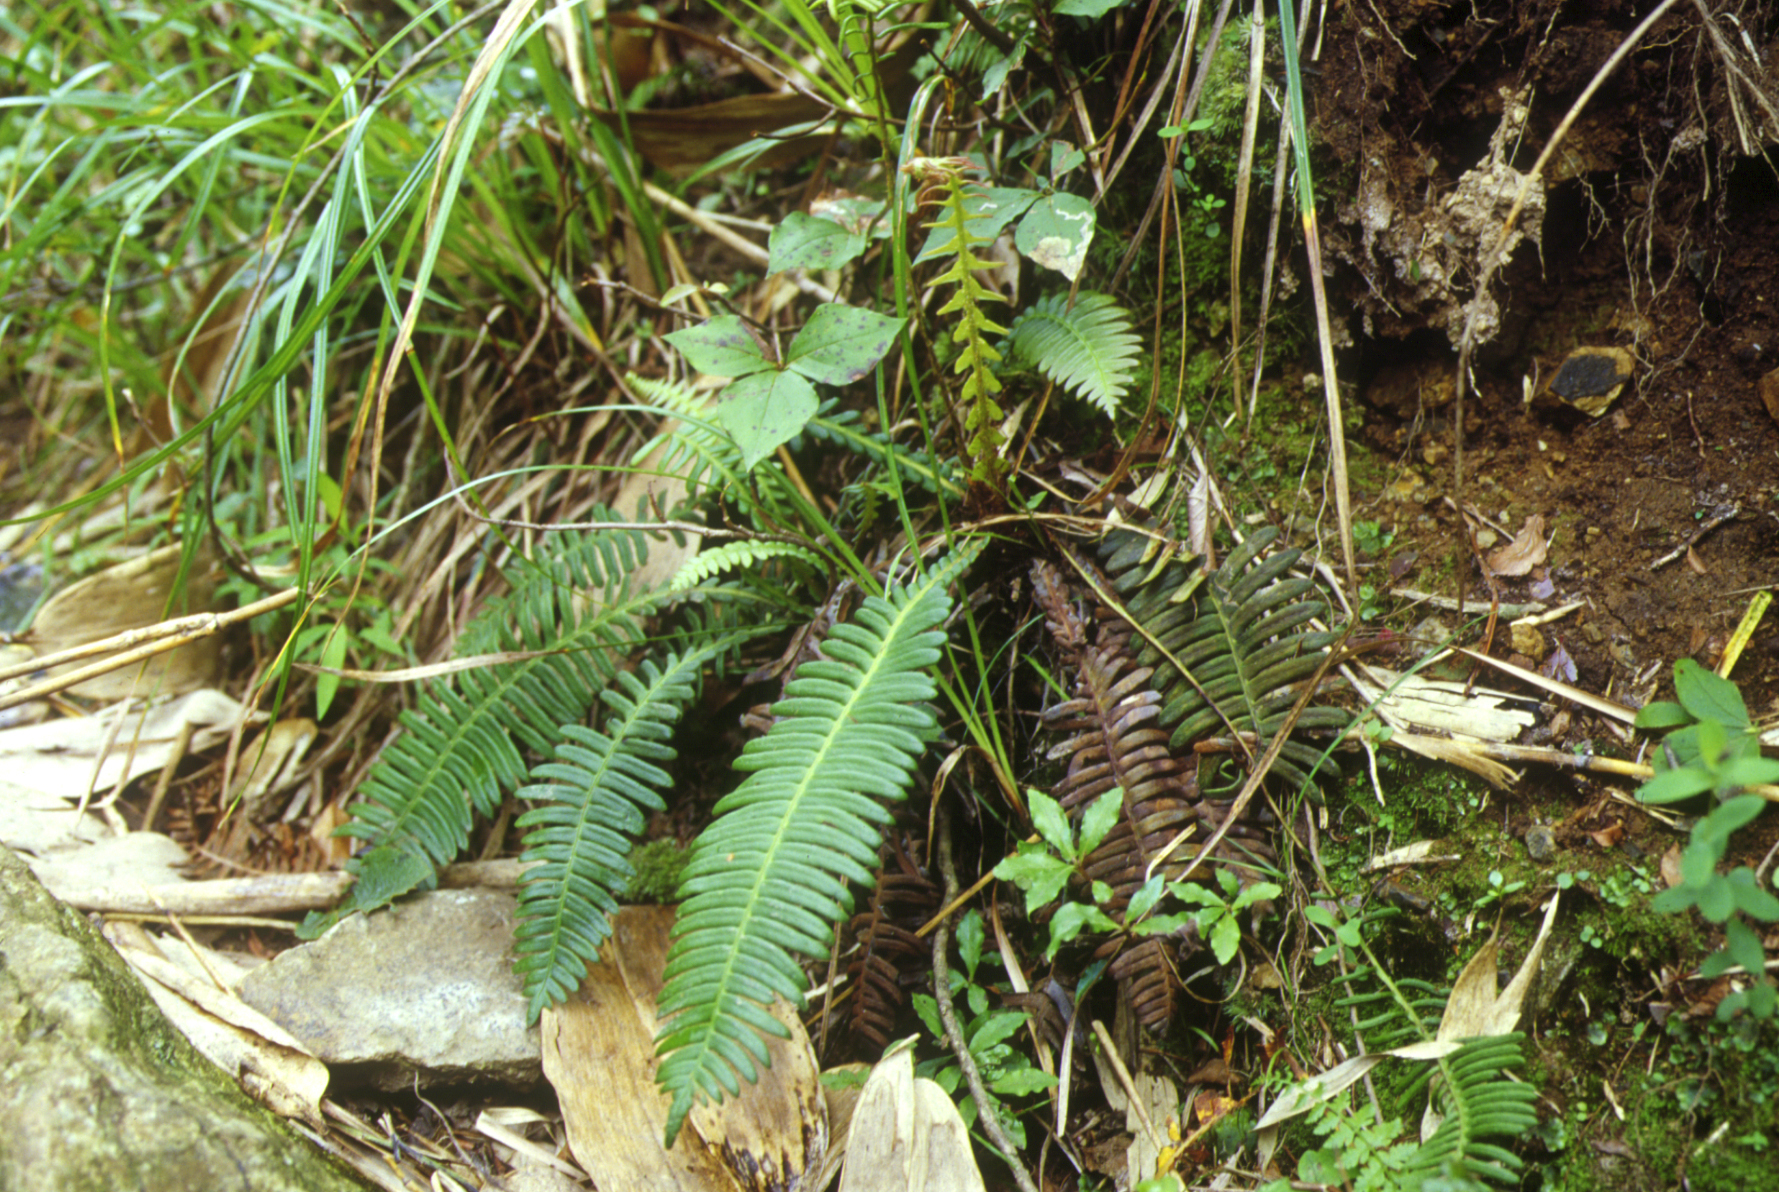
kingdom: Plantae
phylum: Tracheophyta
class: Polypodiopsida
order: Polypodiales
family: Blechnaceae
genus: Spicantopsis
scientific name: Spicantopsis niponica
